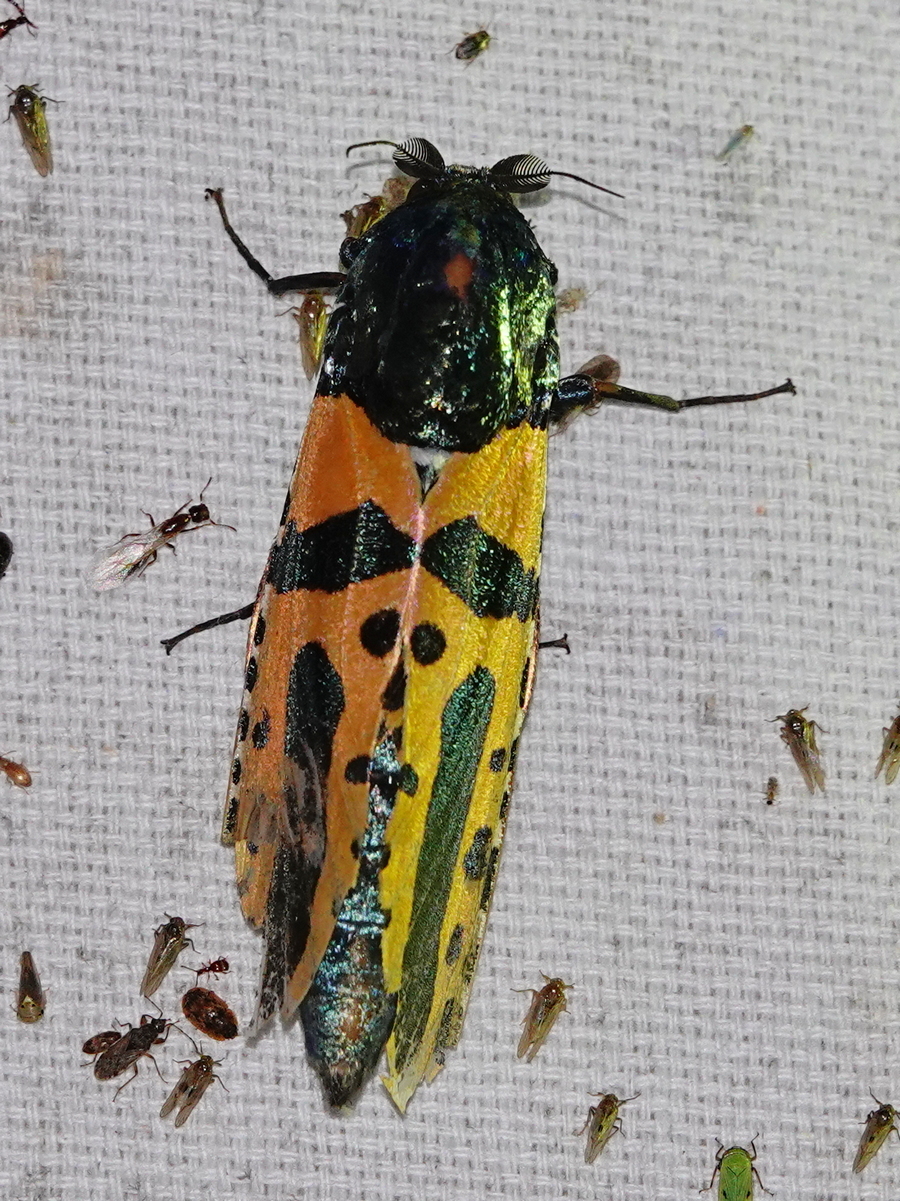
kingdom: Animalia
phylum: Arthropoda
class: Insecta
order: Lepidoptera
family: Cossidae
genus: Chalcidica
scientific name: Chalcidica minea
